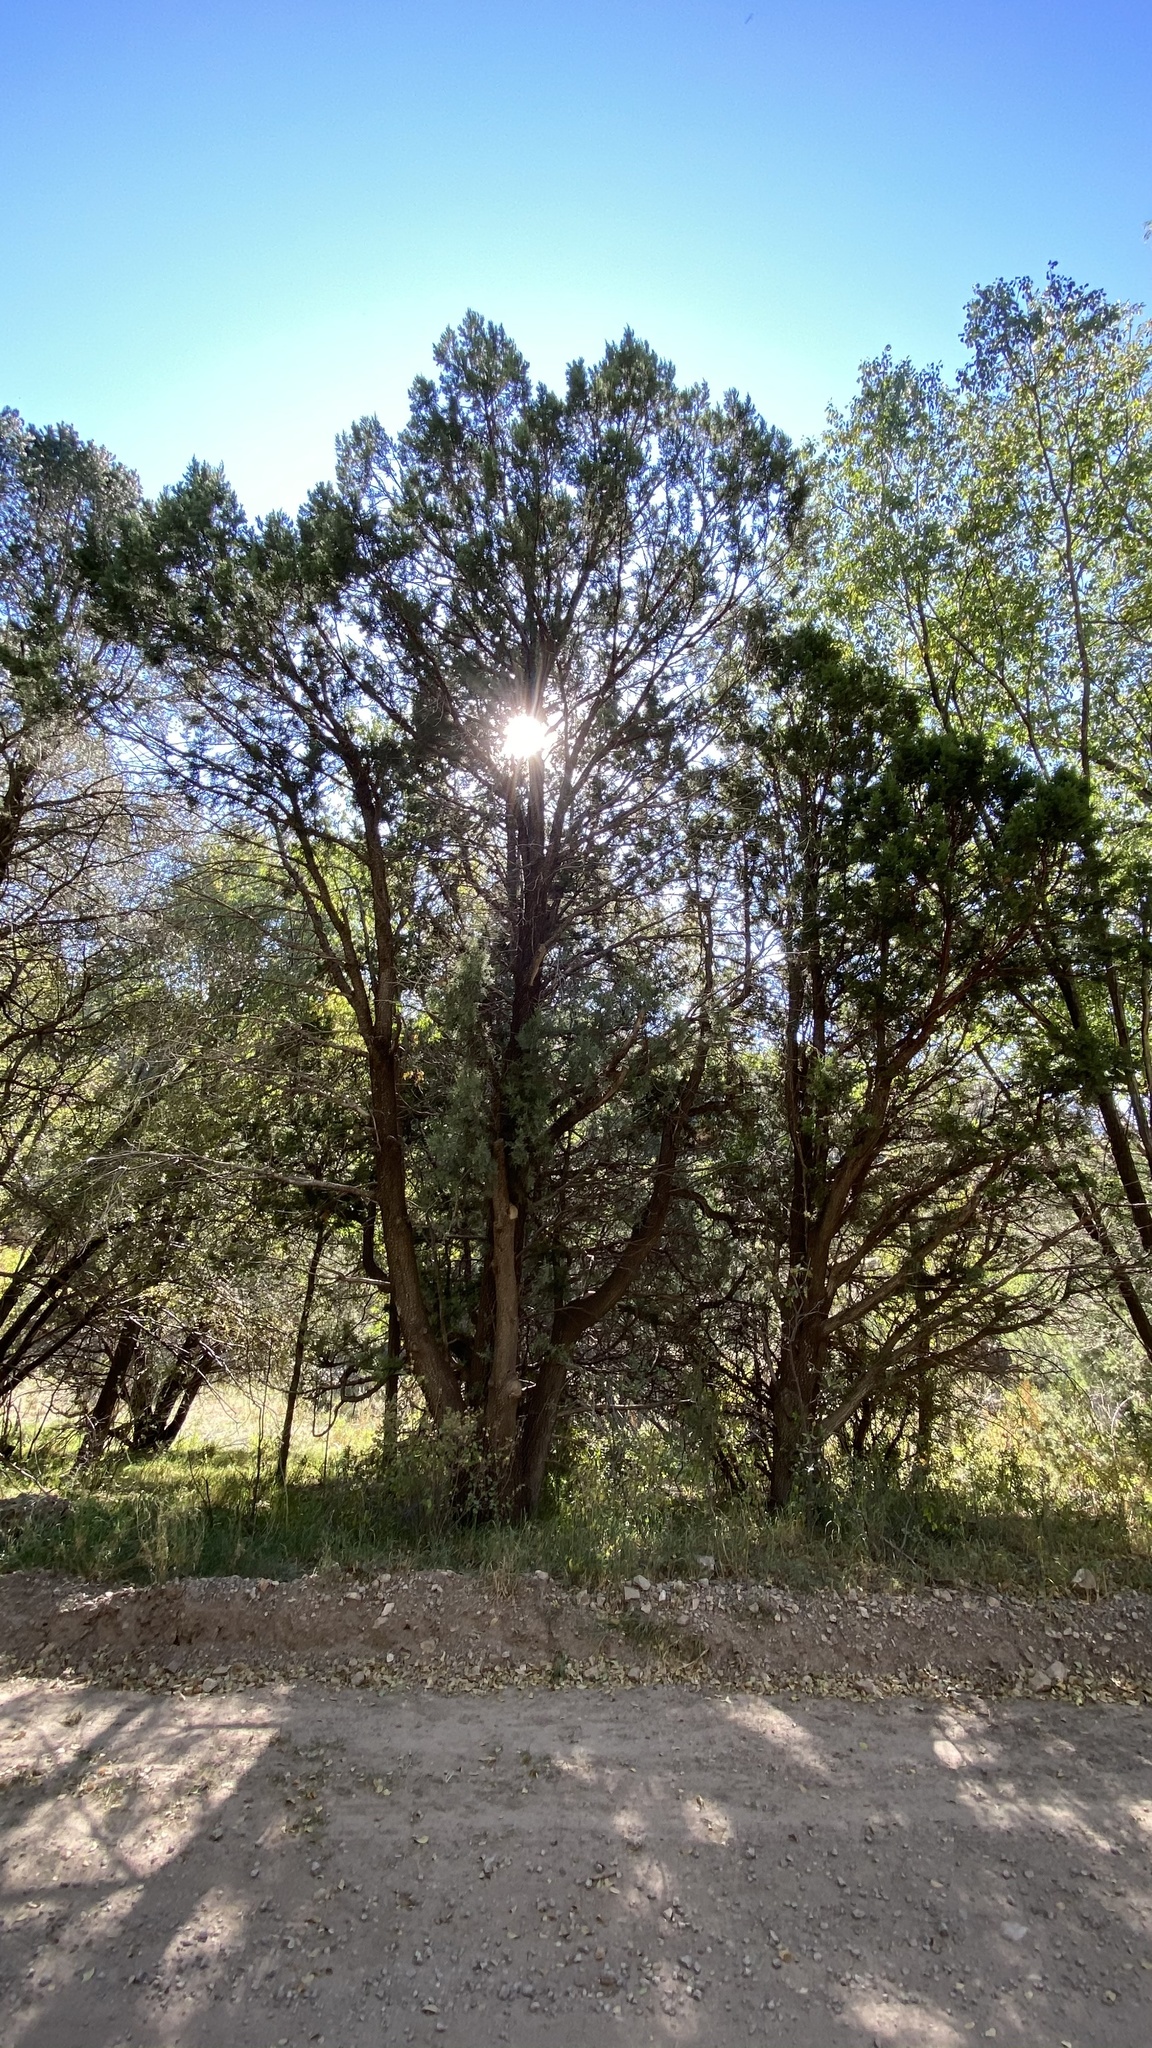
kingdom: Plantae
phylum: Tracheophyta
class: Pinopsida
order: Pinales
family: Cupressaceae
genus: Juniperus
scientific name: Juniperus deppeana
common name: Alligator juniper
